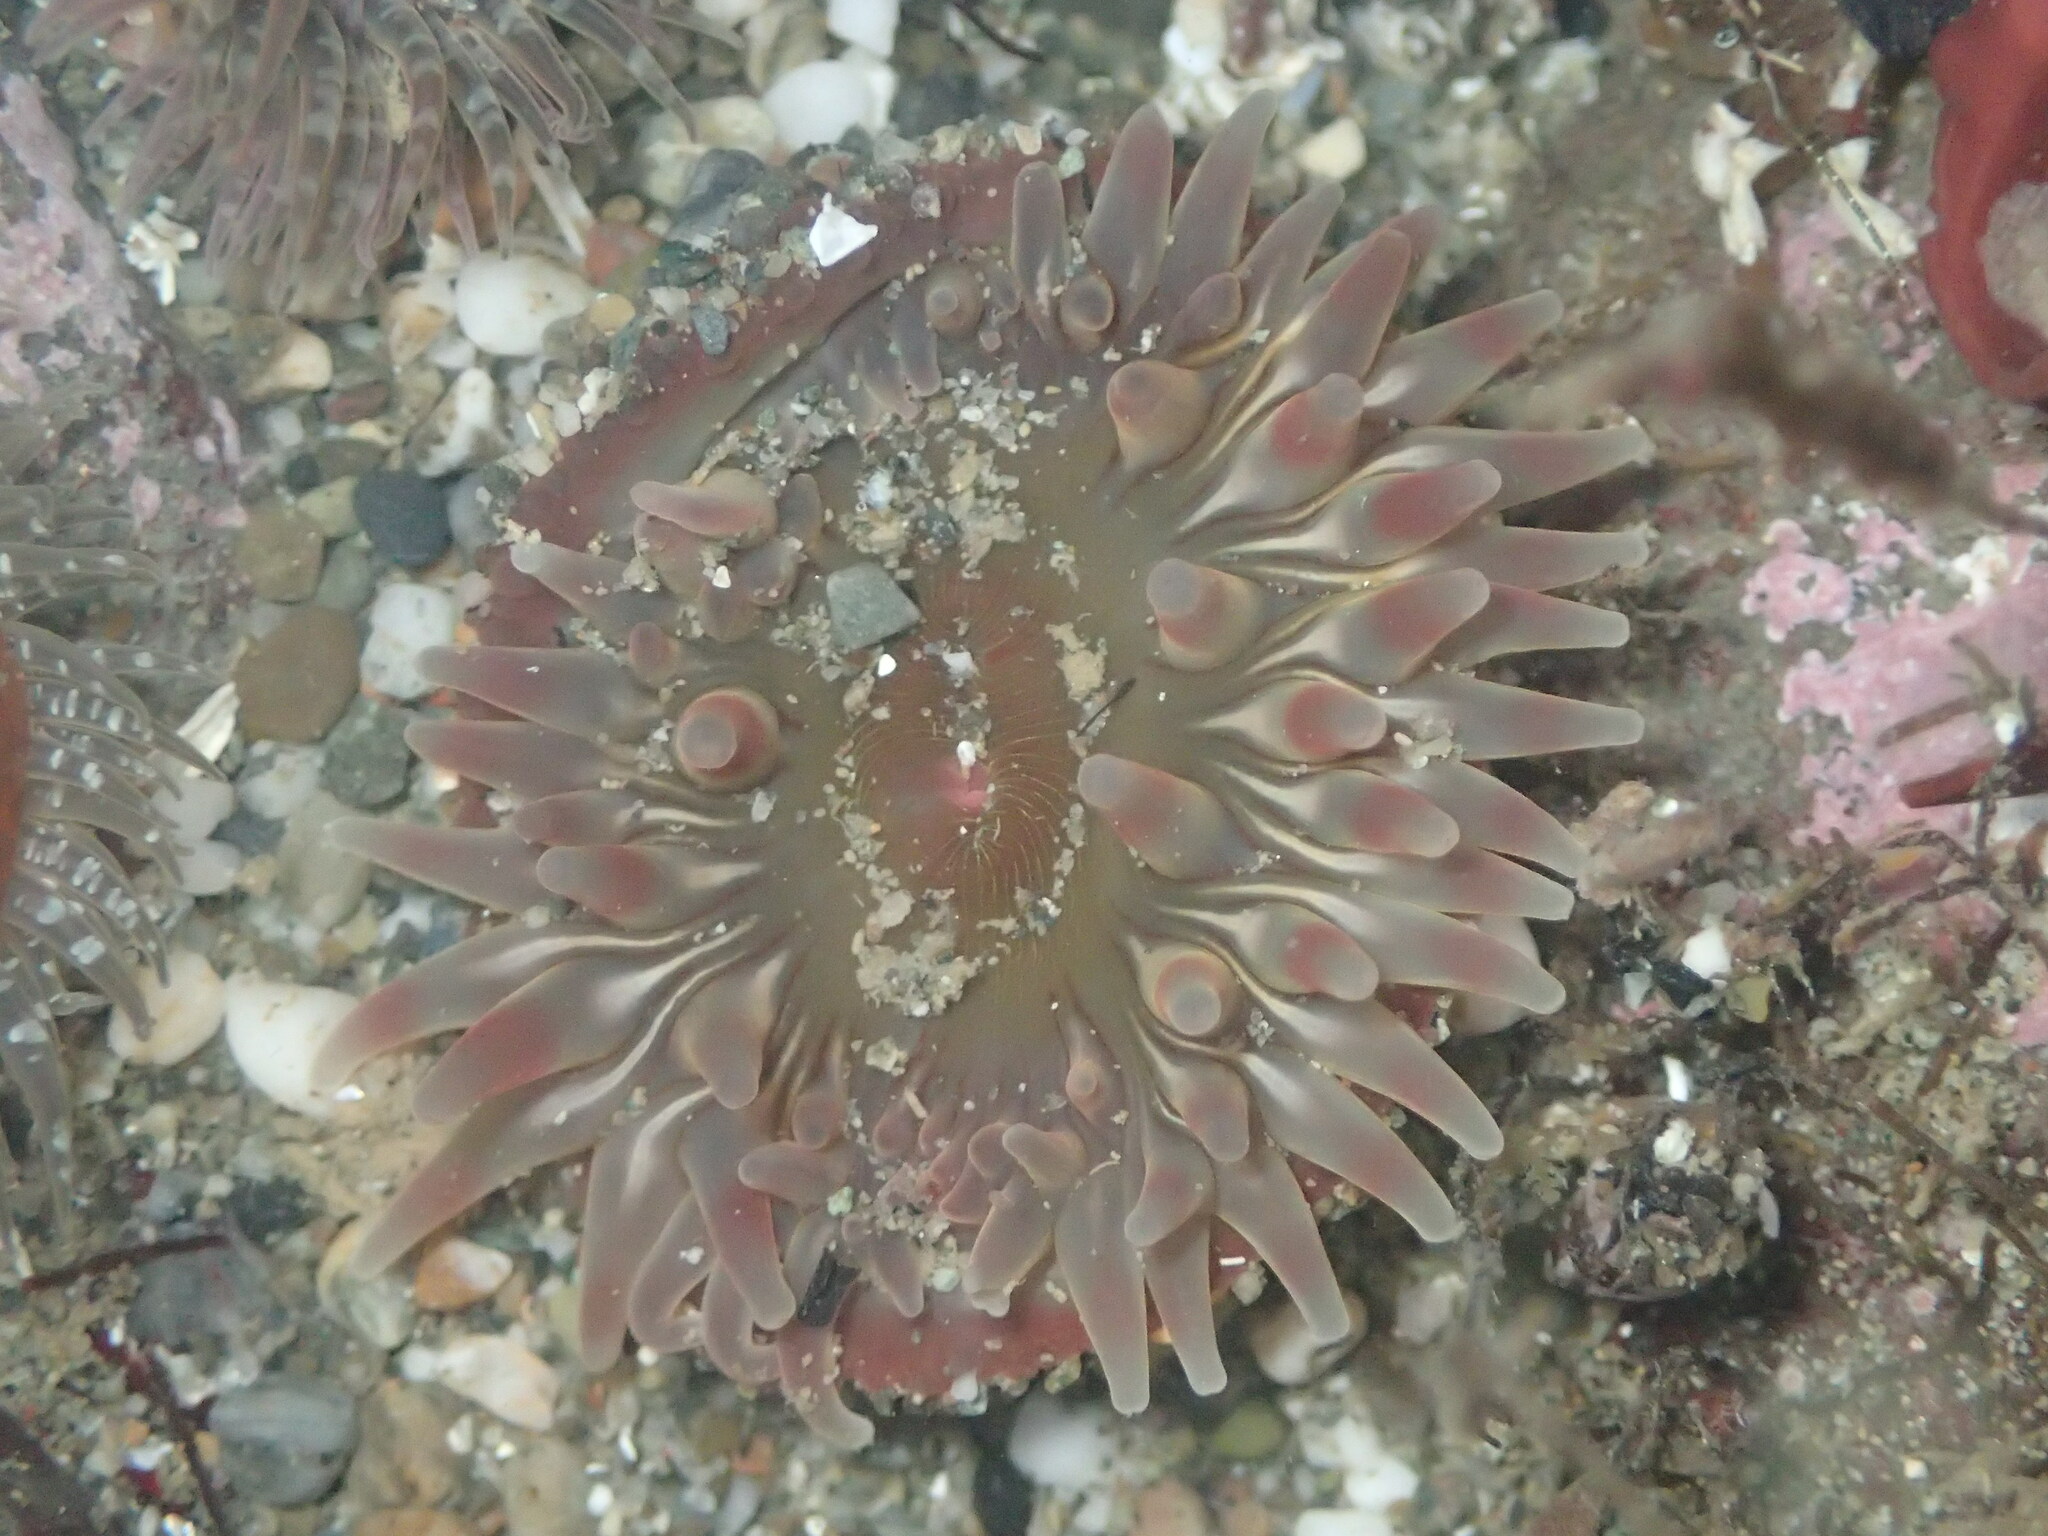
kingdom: Animalia
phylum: Cnidaria
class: Anthozoa
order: Actiniaria
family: Actiniidae
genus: Urticina
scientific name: Urticina clandestina
